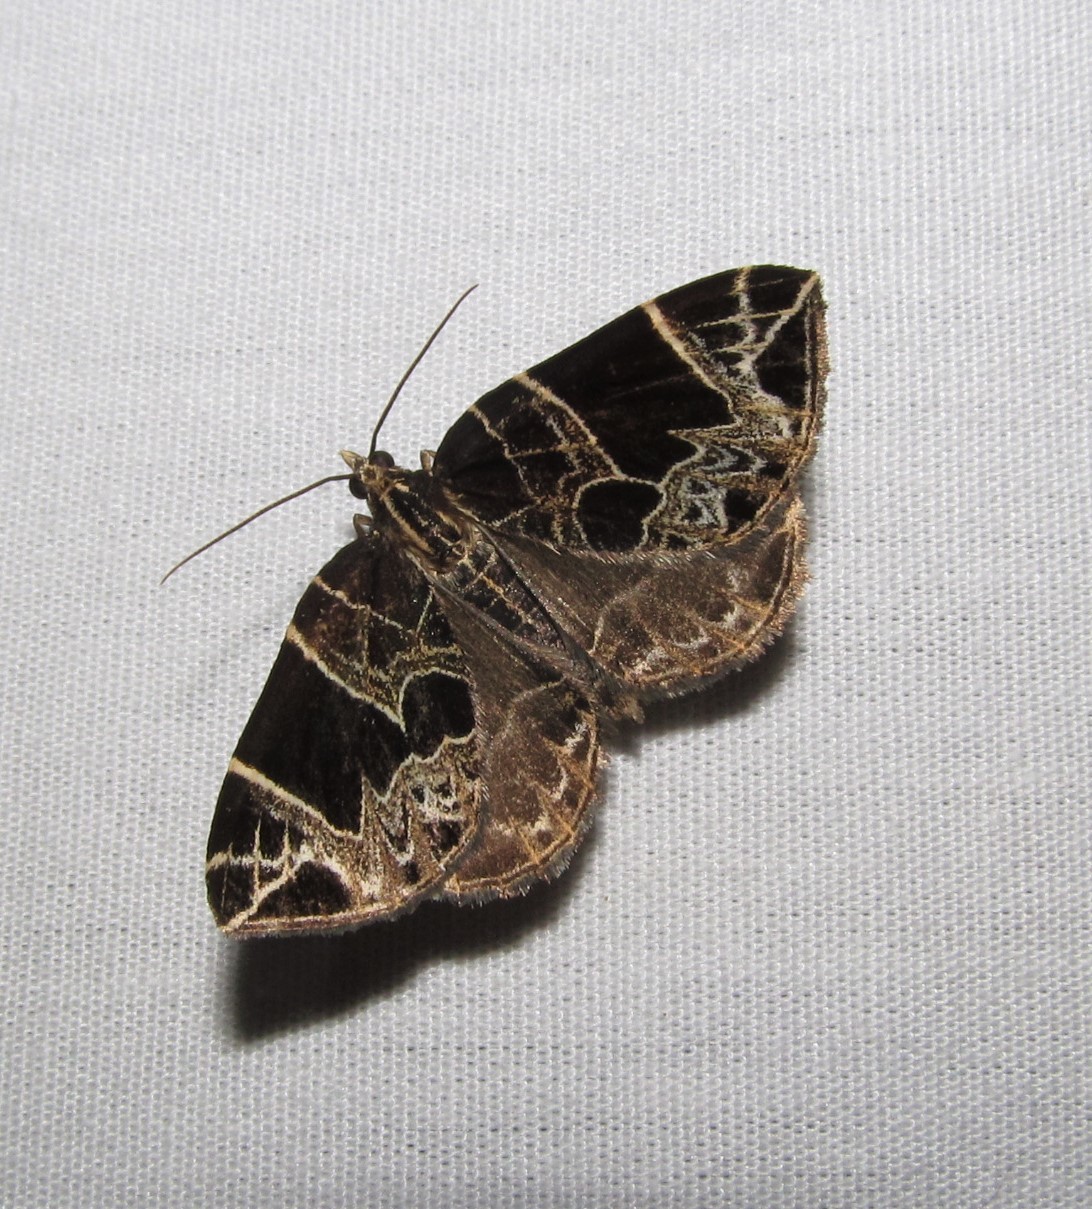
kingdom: Animalia
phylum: Arthropoda
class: Insecta
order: Lepidoptera
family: Geometridae
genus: Ecliptopera
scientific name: Ecliptopera atricolorata
